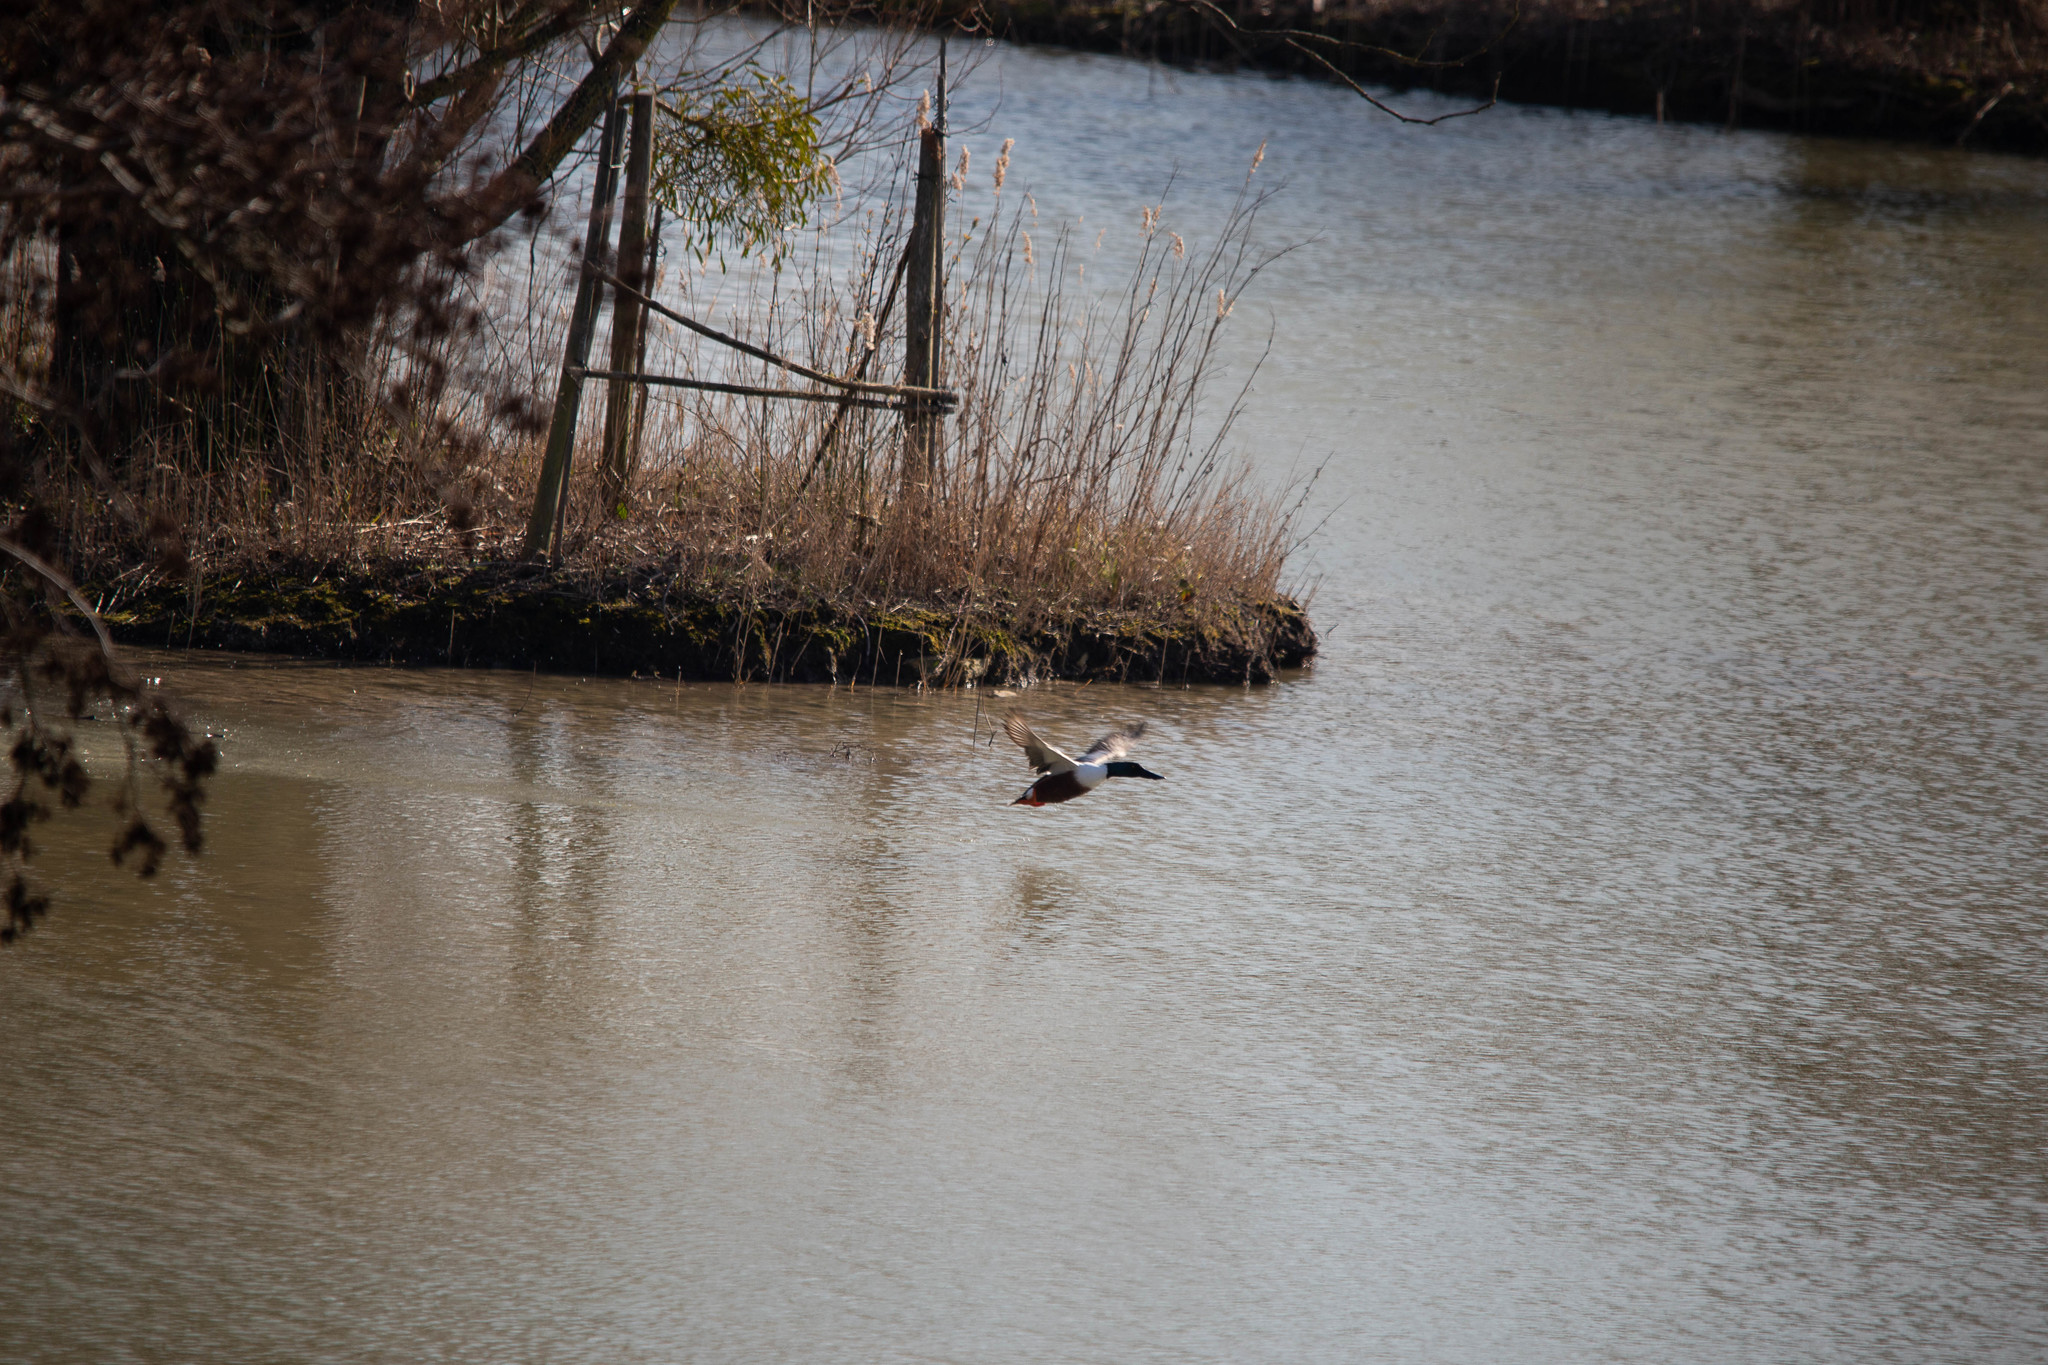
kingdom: Animalia
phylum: Chordata
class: Aves
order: Anseriformes
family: Anatidae
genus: Spatula
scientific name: Spatula clypeata
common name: Northern shoveler
